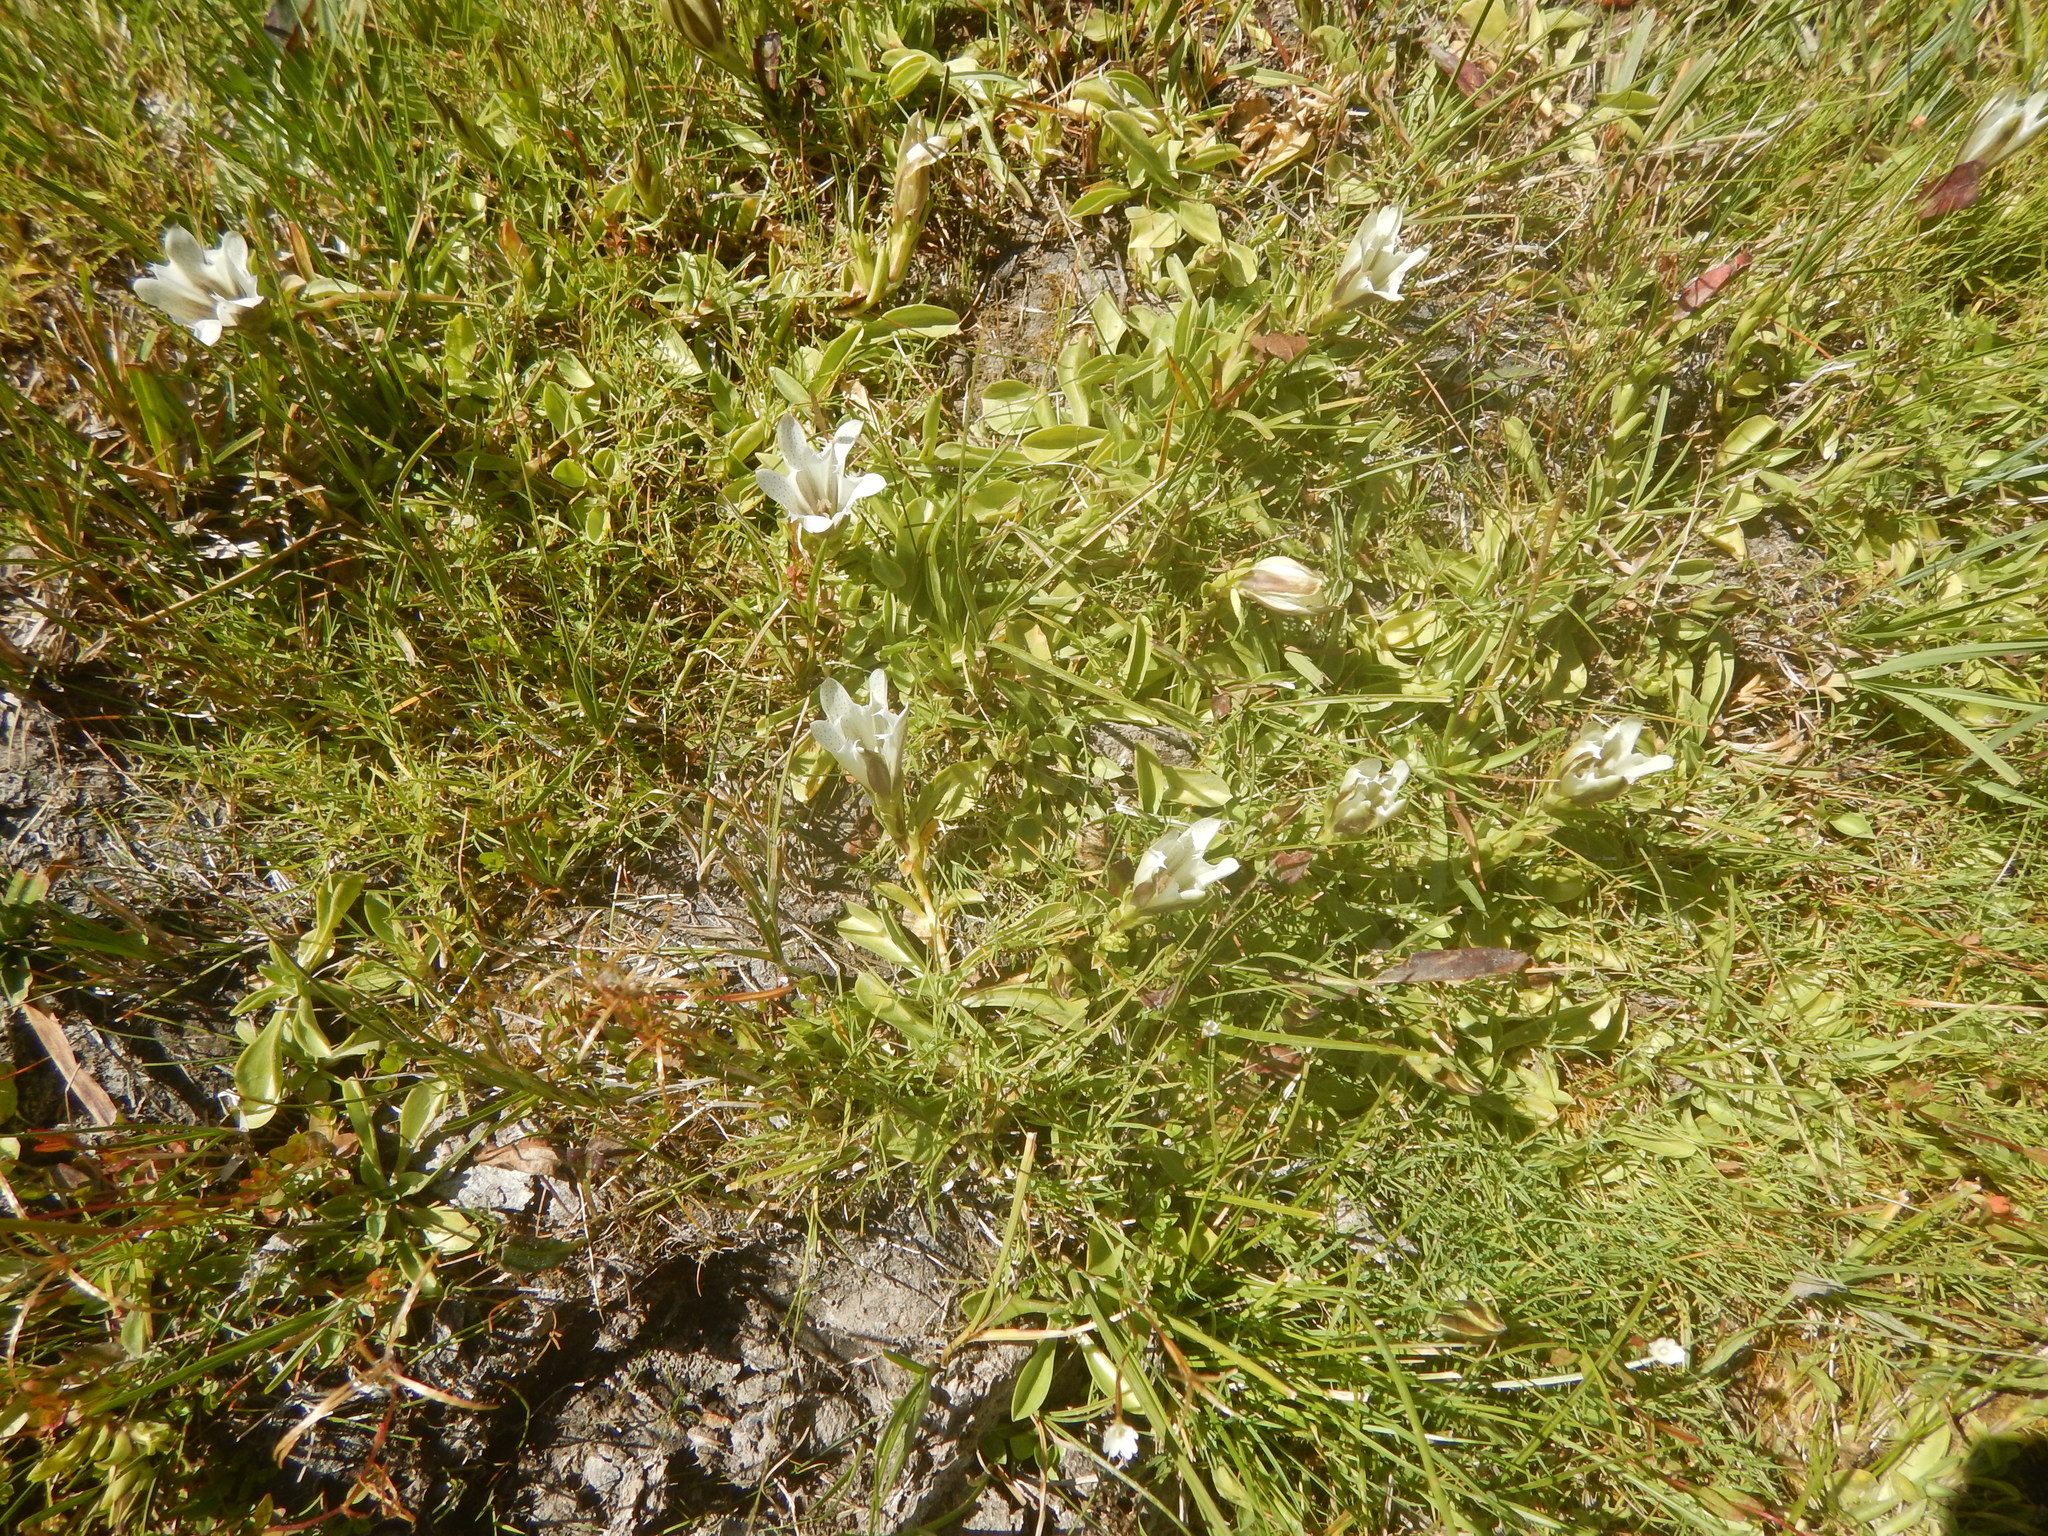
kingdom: Plantae
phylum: Tracheophyta
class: Magnoliopsida
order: Gentianales
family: Gentianaceae
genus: Gentiana
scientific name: Gentiana newberryi
